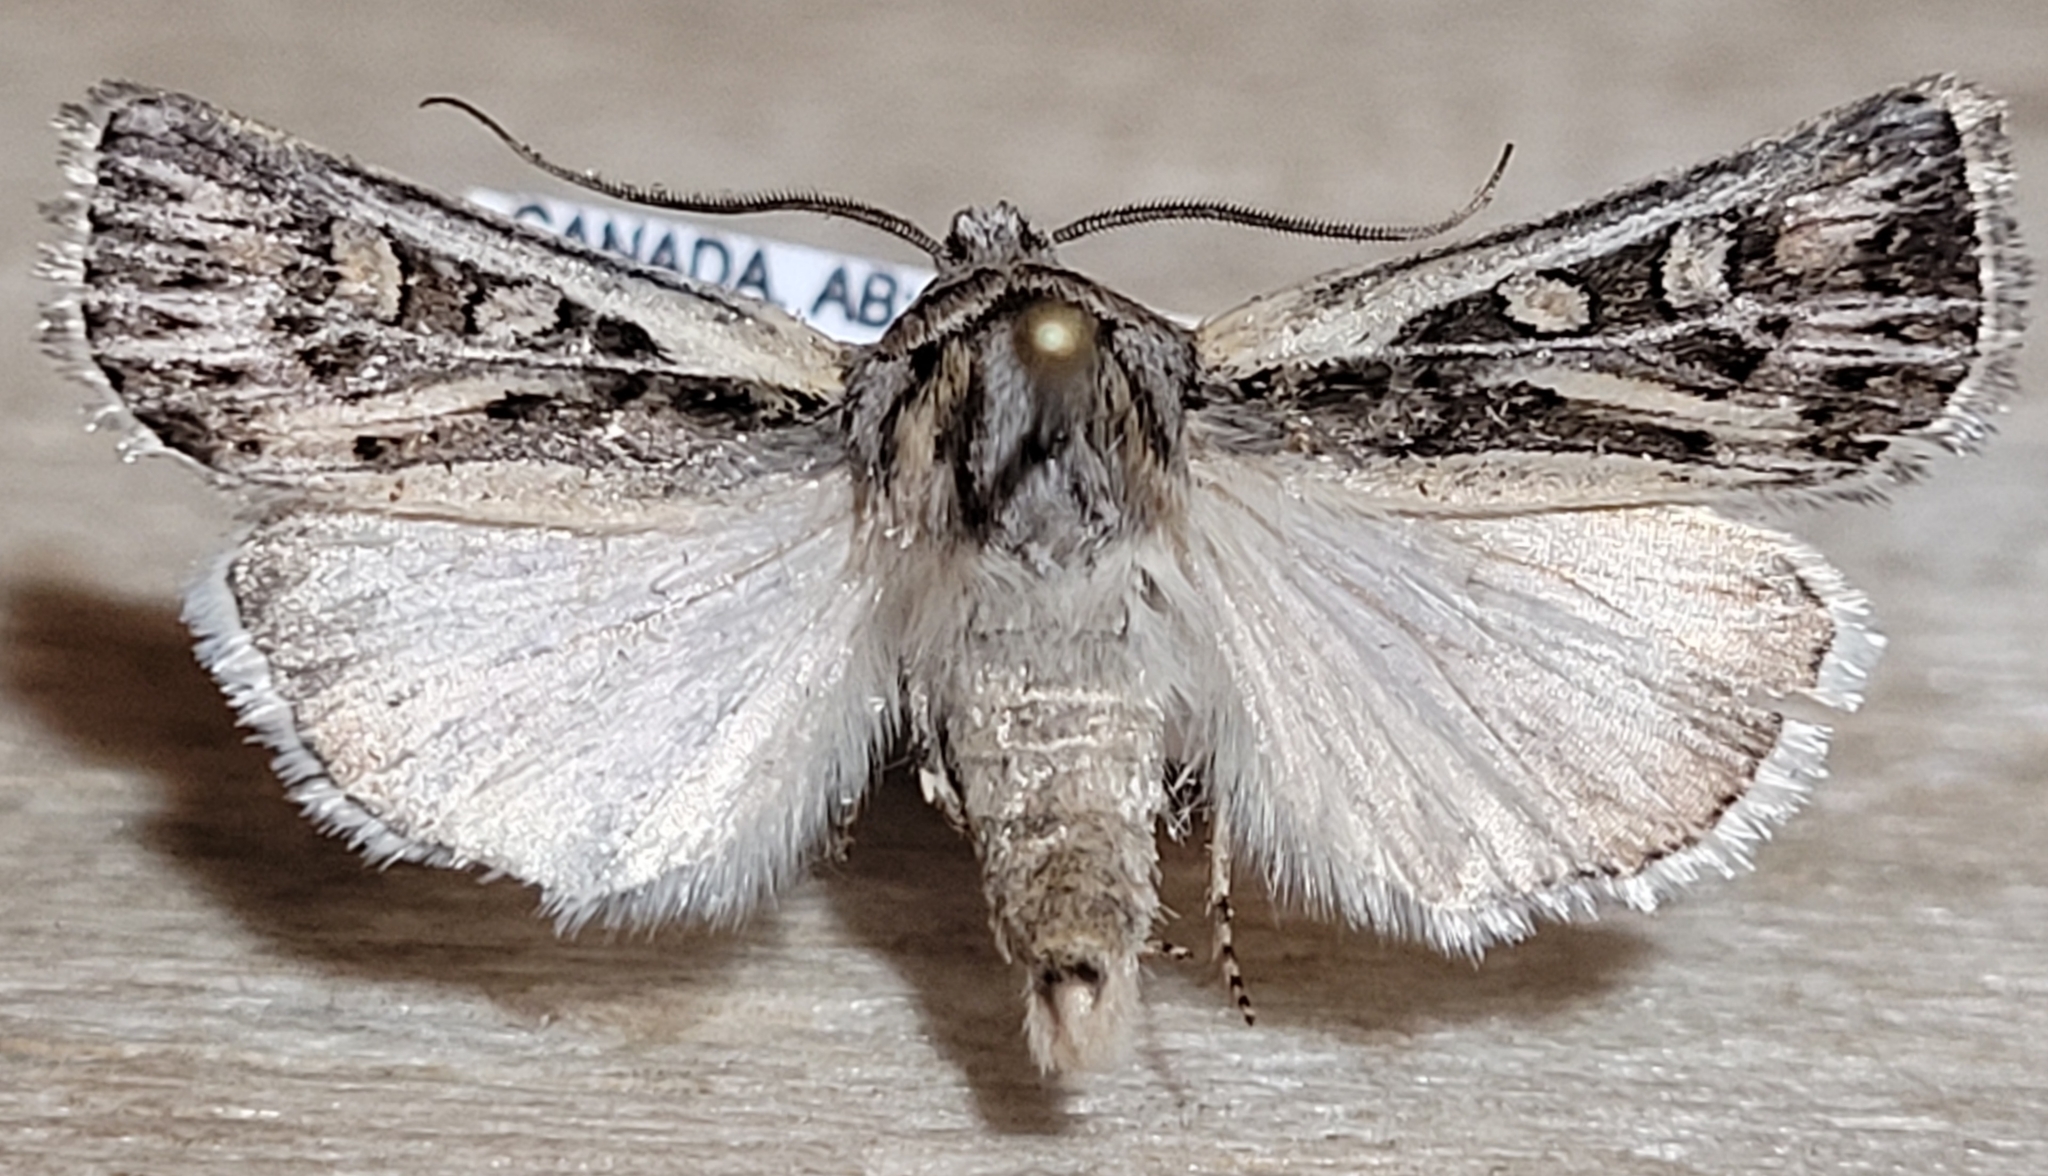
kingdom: Animalia
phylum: Arthropoda
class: Insecta
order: Lepidoptera
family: Noctuidae
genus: Euxoa
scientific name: Euxoa quadridentata
